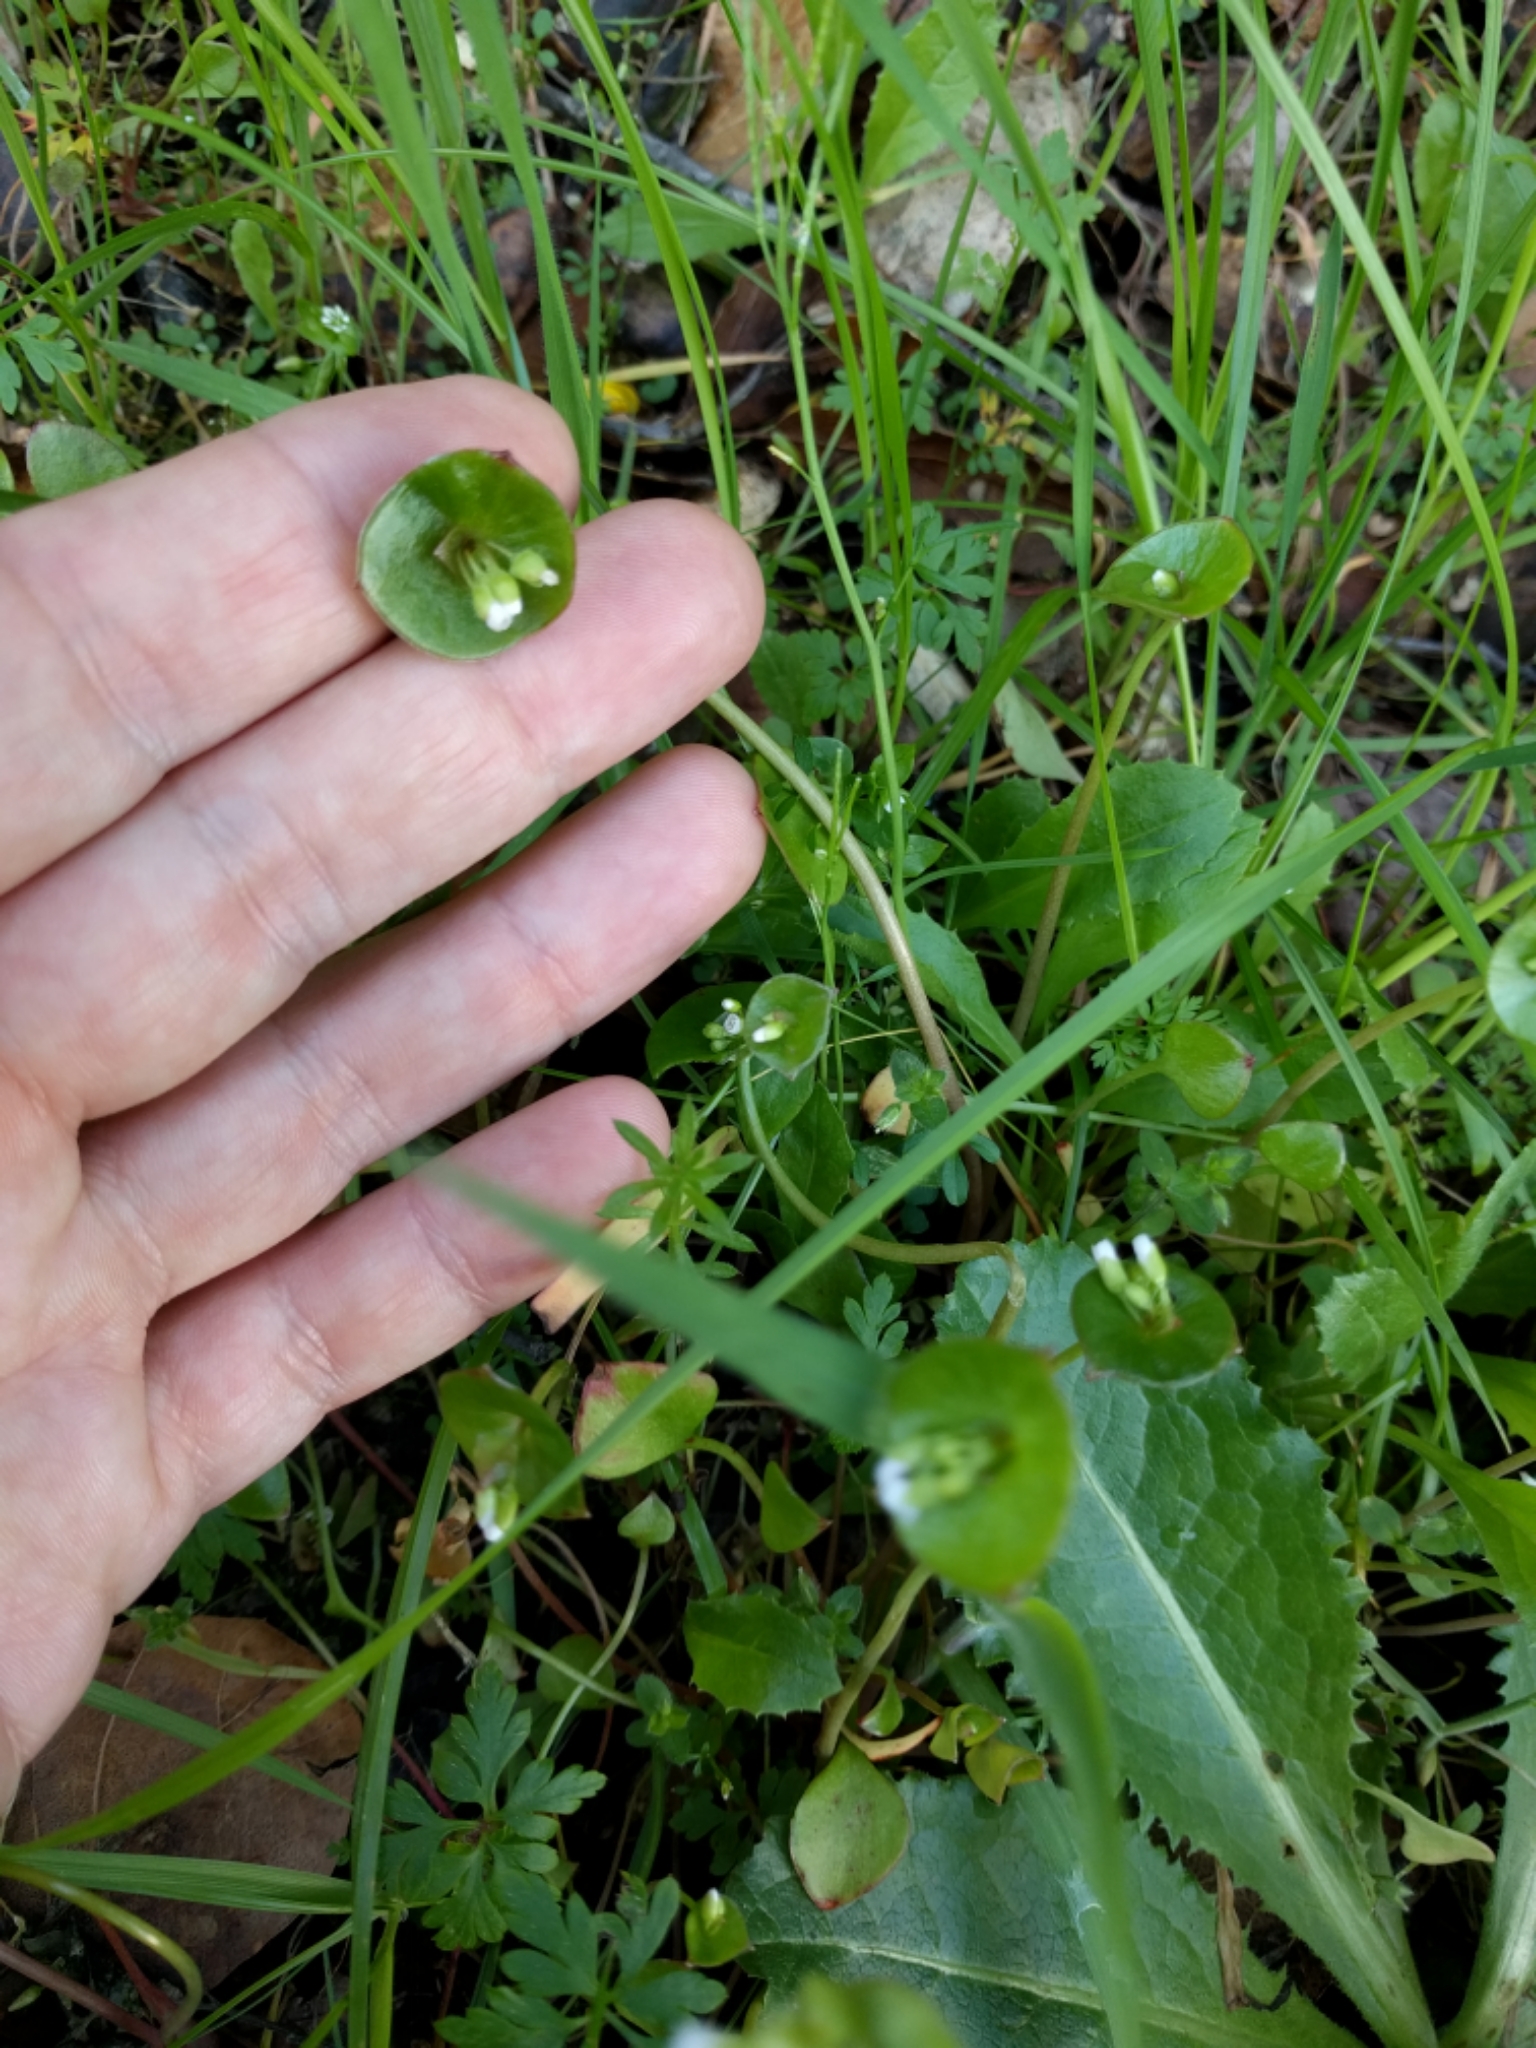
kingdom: Plantae
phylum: Tracheophyta
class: Magnoliopsida
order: Caryophyllales
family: Montiaceae
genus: Claytonia
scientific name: Claytonia perfoliata
